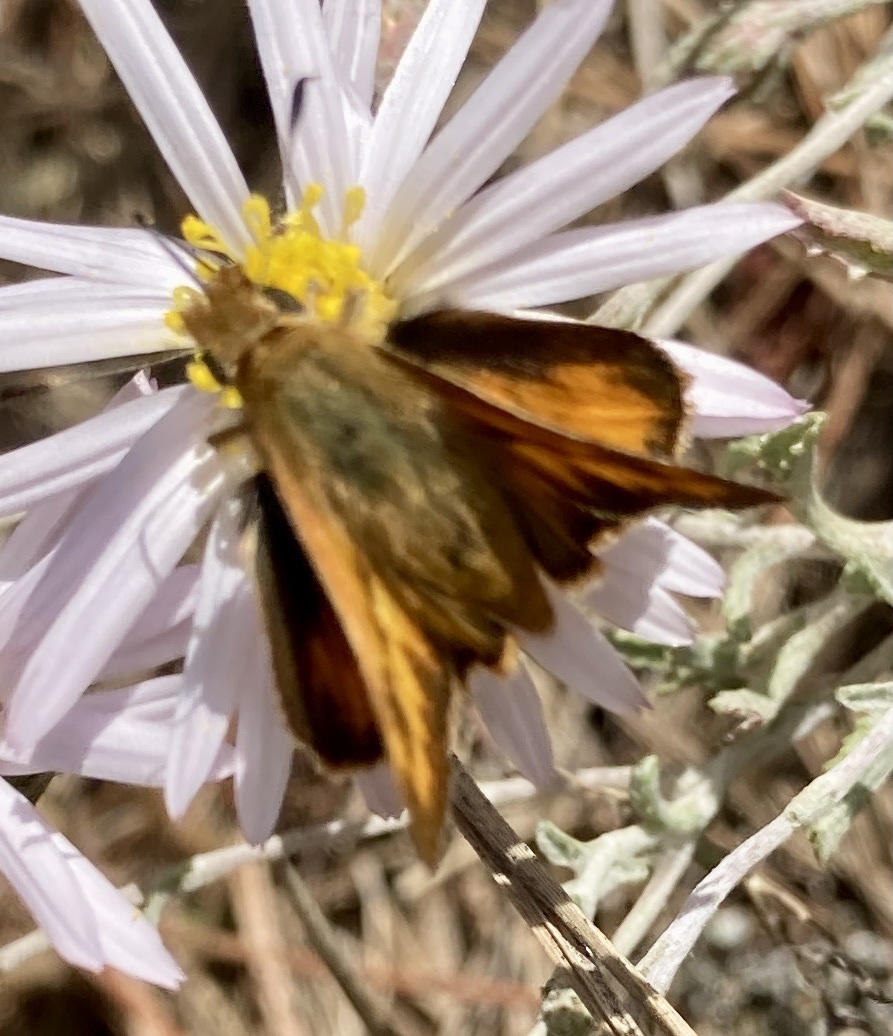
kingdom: Animalia
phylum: Arthropoda
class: Insecta
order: Lepidoptera
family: Hesperiidae
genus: Ochlodes
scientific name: Ochlodes sylvanoides
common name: Woodland skipper
